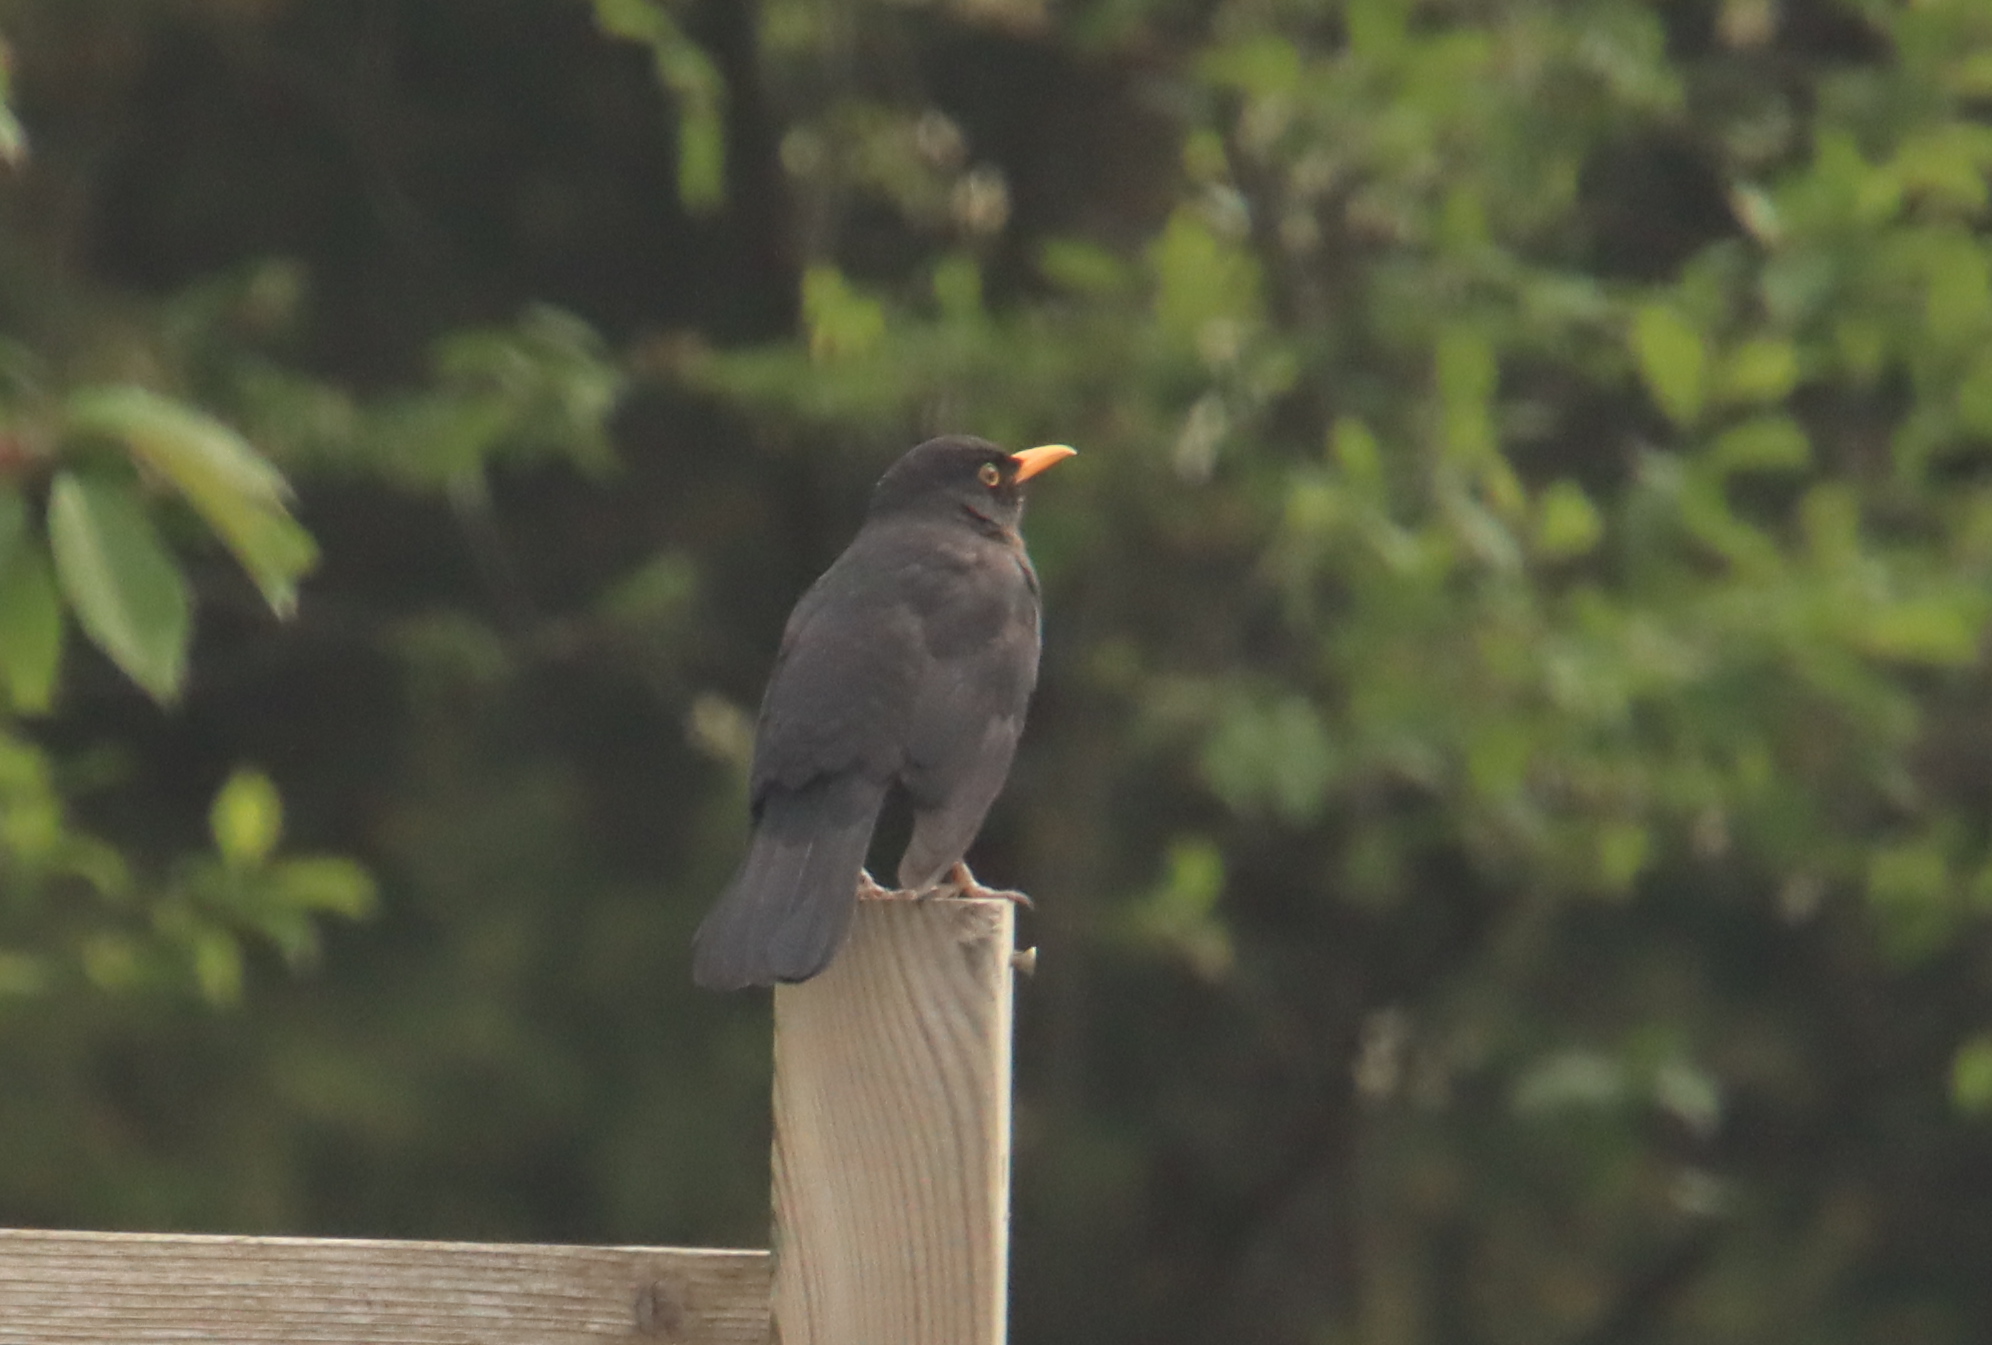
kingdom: Animalia
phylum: Chordata
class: Aves
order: Passeriformes
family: Turdidae
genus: Turdus
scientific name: Turdus merula
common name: Common blackbird
